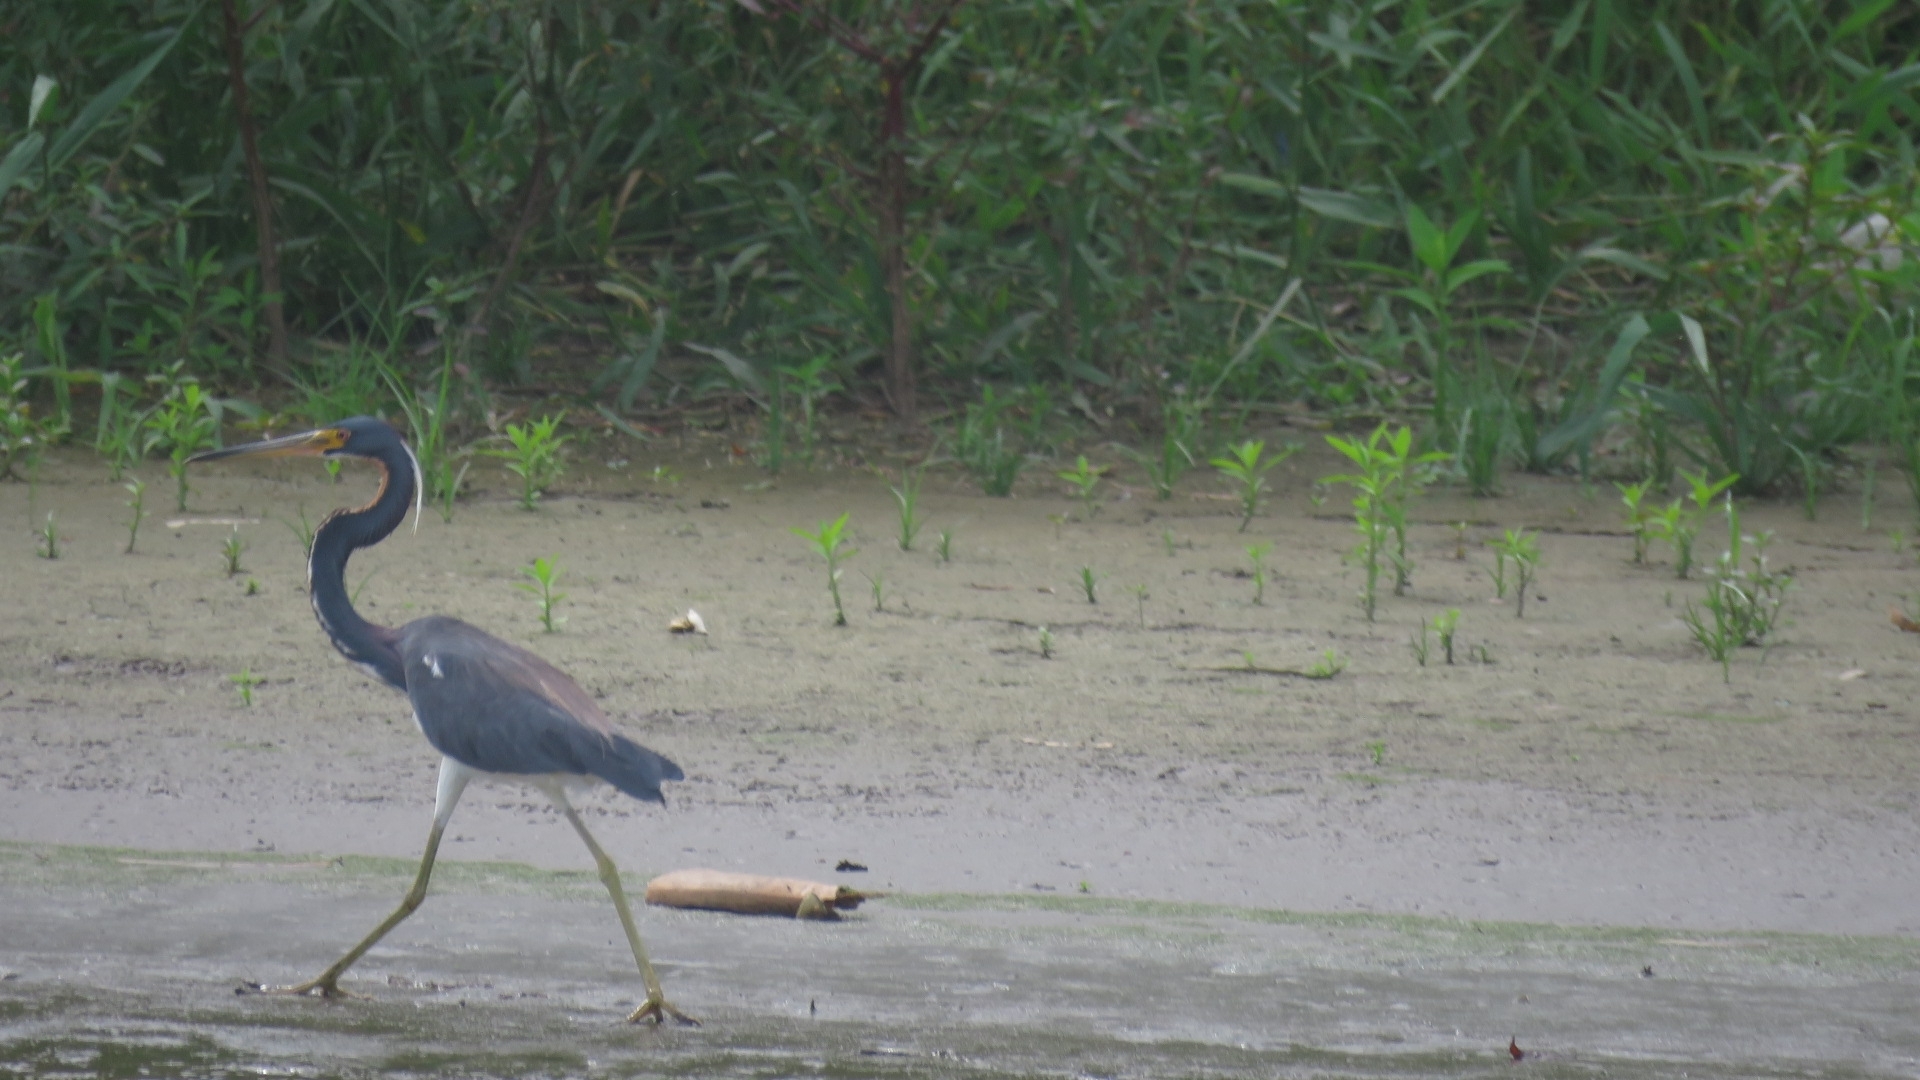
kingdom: Animalia
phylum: Chordata
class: Aves
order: Pelecaniformes
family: Ardeidae
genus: Egretta
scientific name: Egretta tricolor
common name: Tricolored heron
